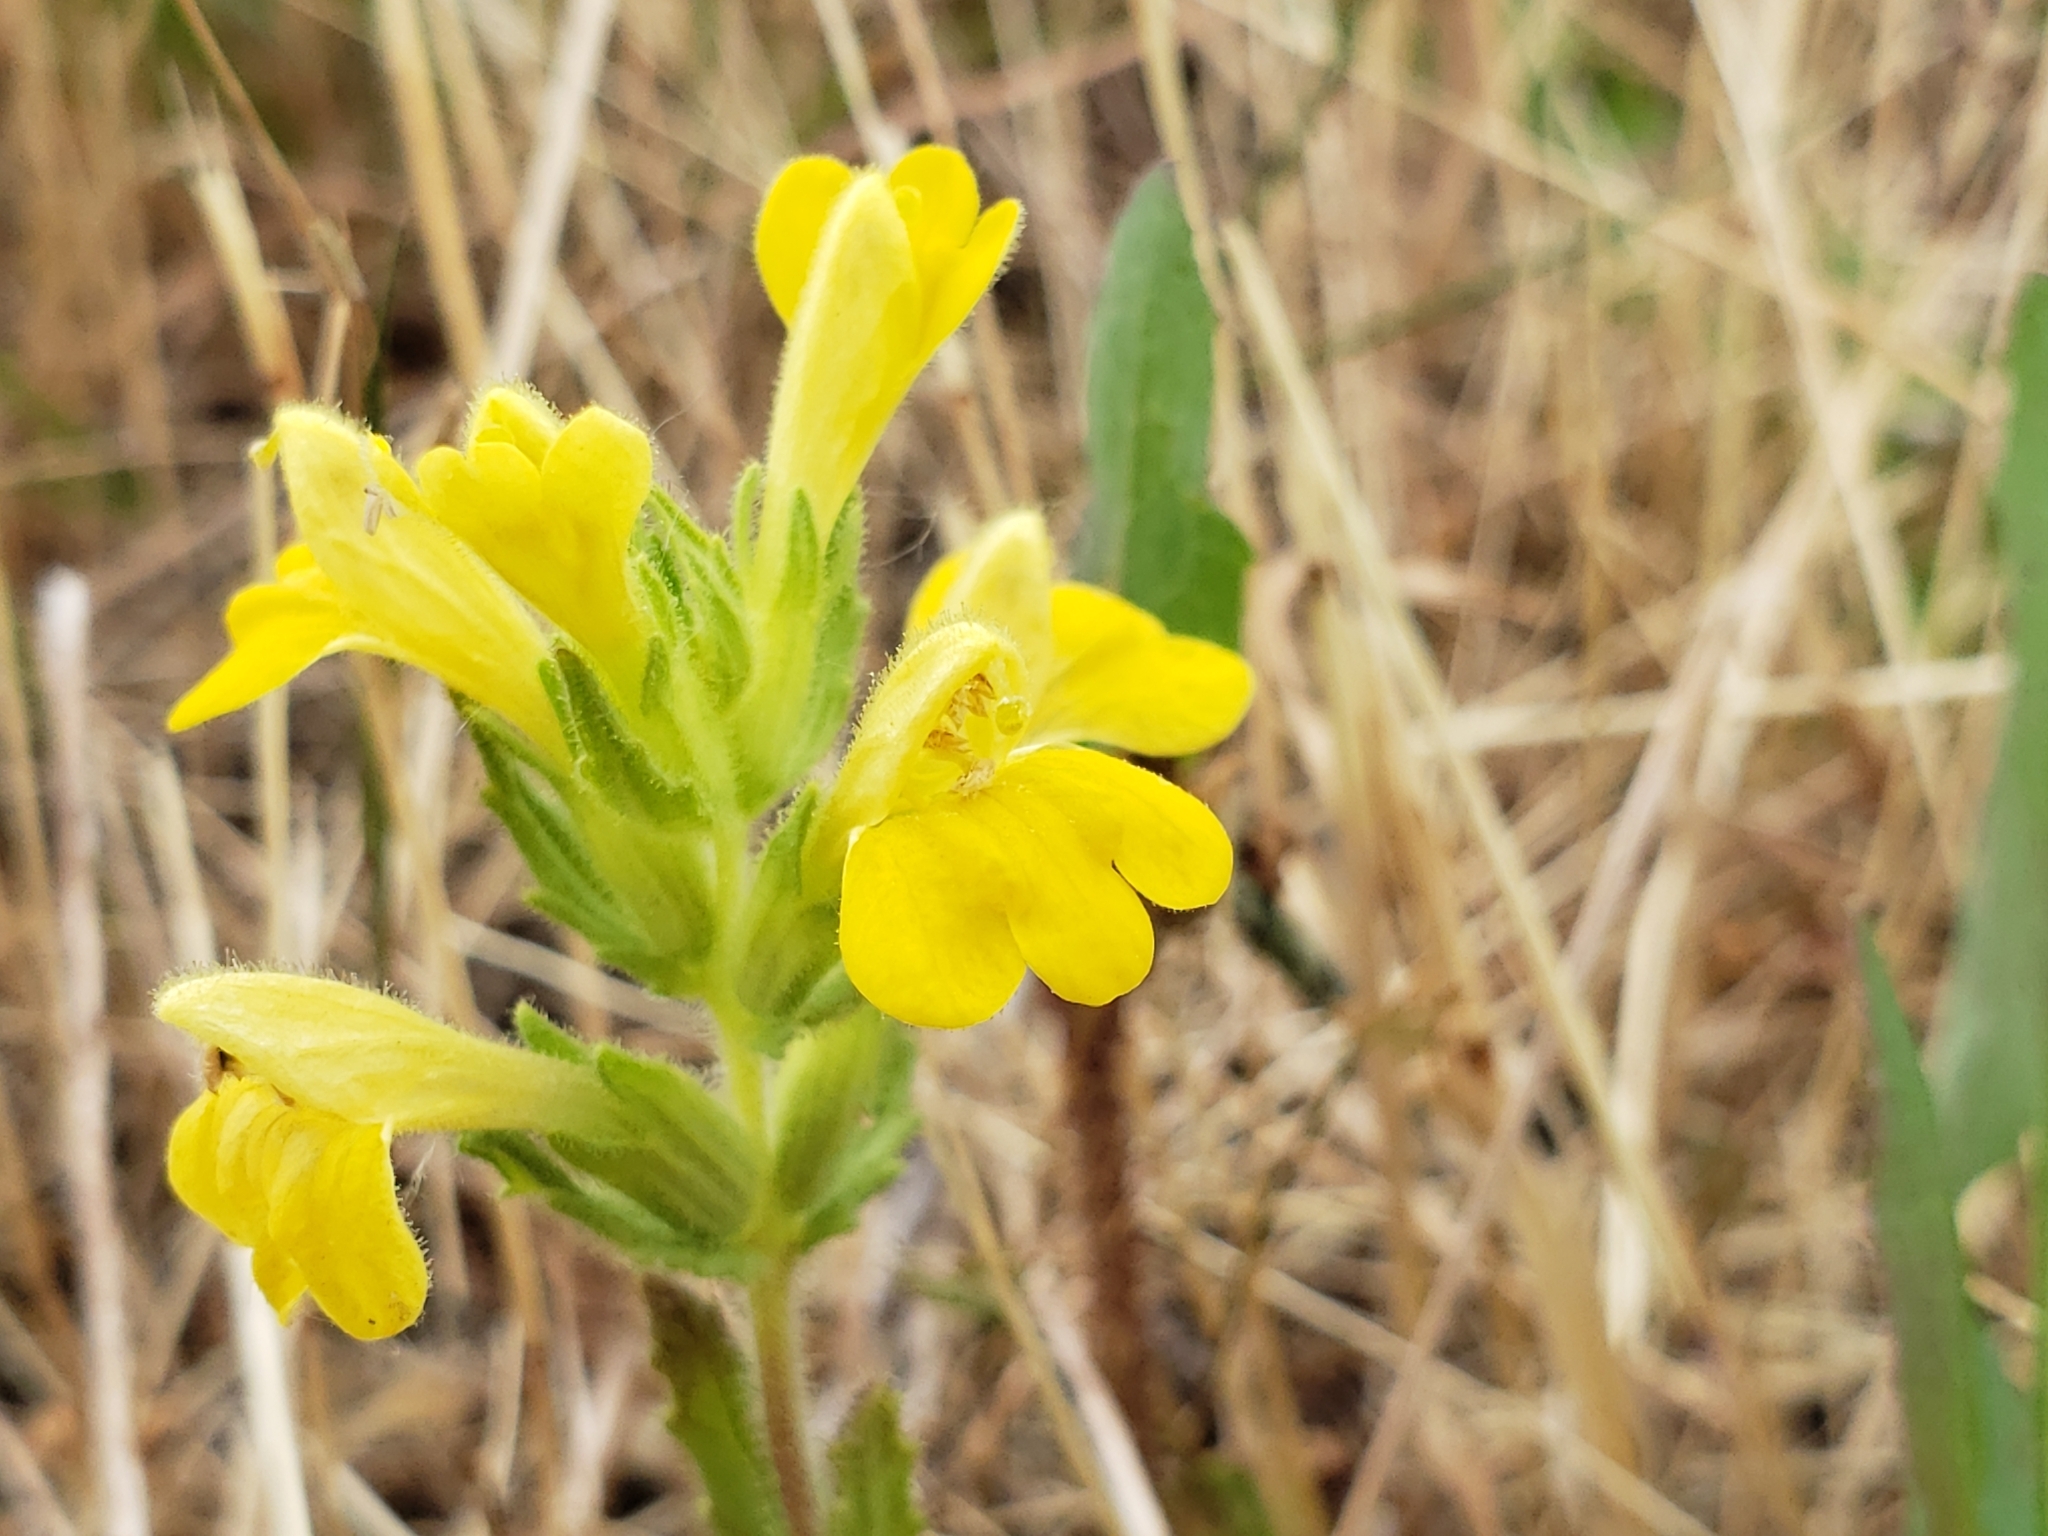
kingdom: Plantae
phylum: Tracheophyta
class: Magnoliopsida
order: Lamiales
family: Orobanchaceae
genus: Bellardia
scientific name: Bellardia viscosa
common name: Sticky parentucellia
